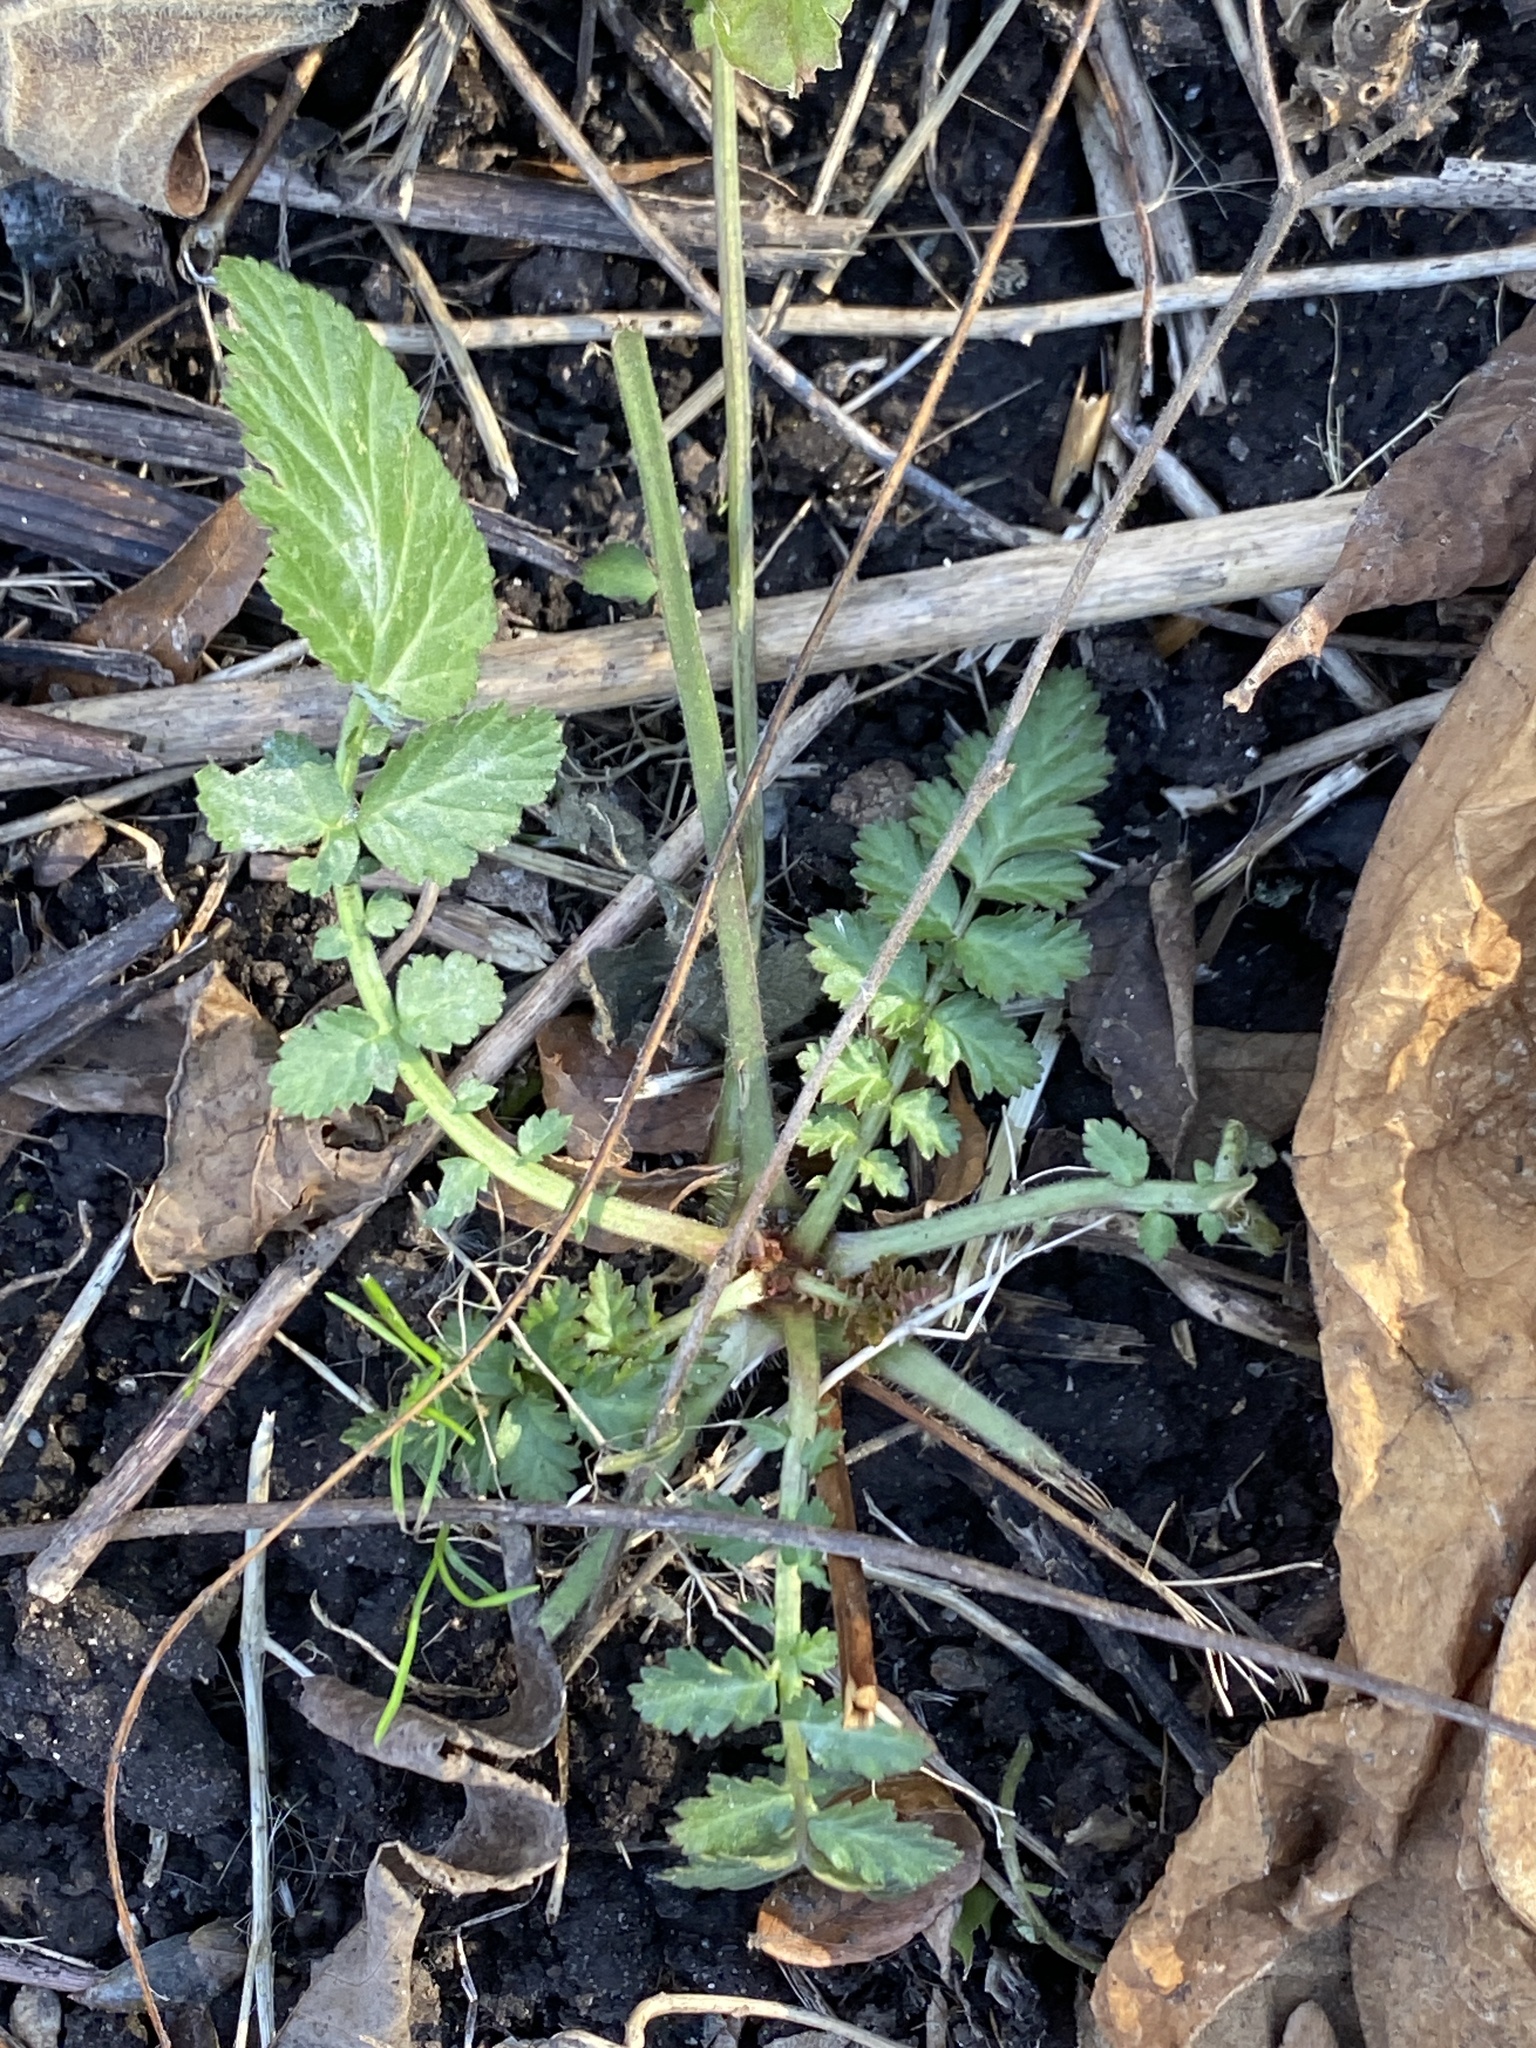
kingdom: Plantae
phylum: Tracheophyta
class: Magnoliopsida
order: Rosales
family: Rosaceae
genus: Geum
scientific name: Geum canadense
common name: White avens
